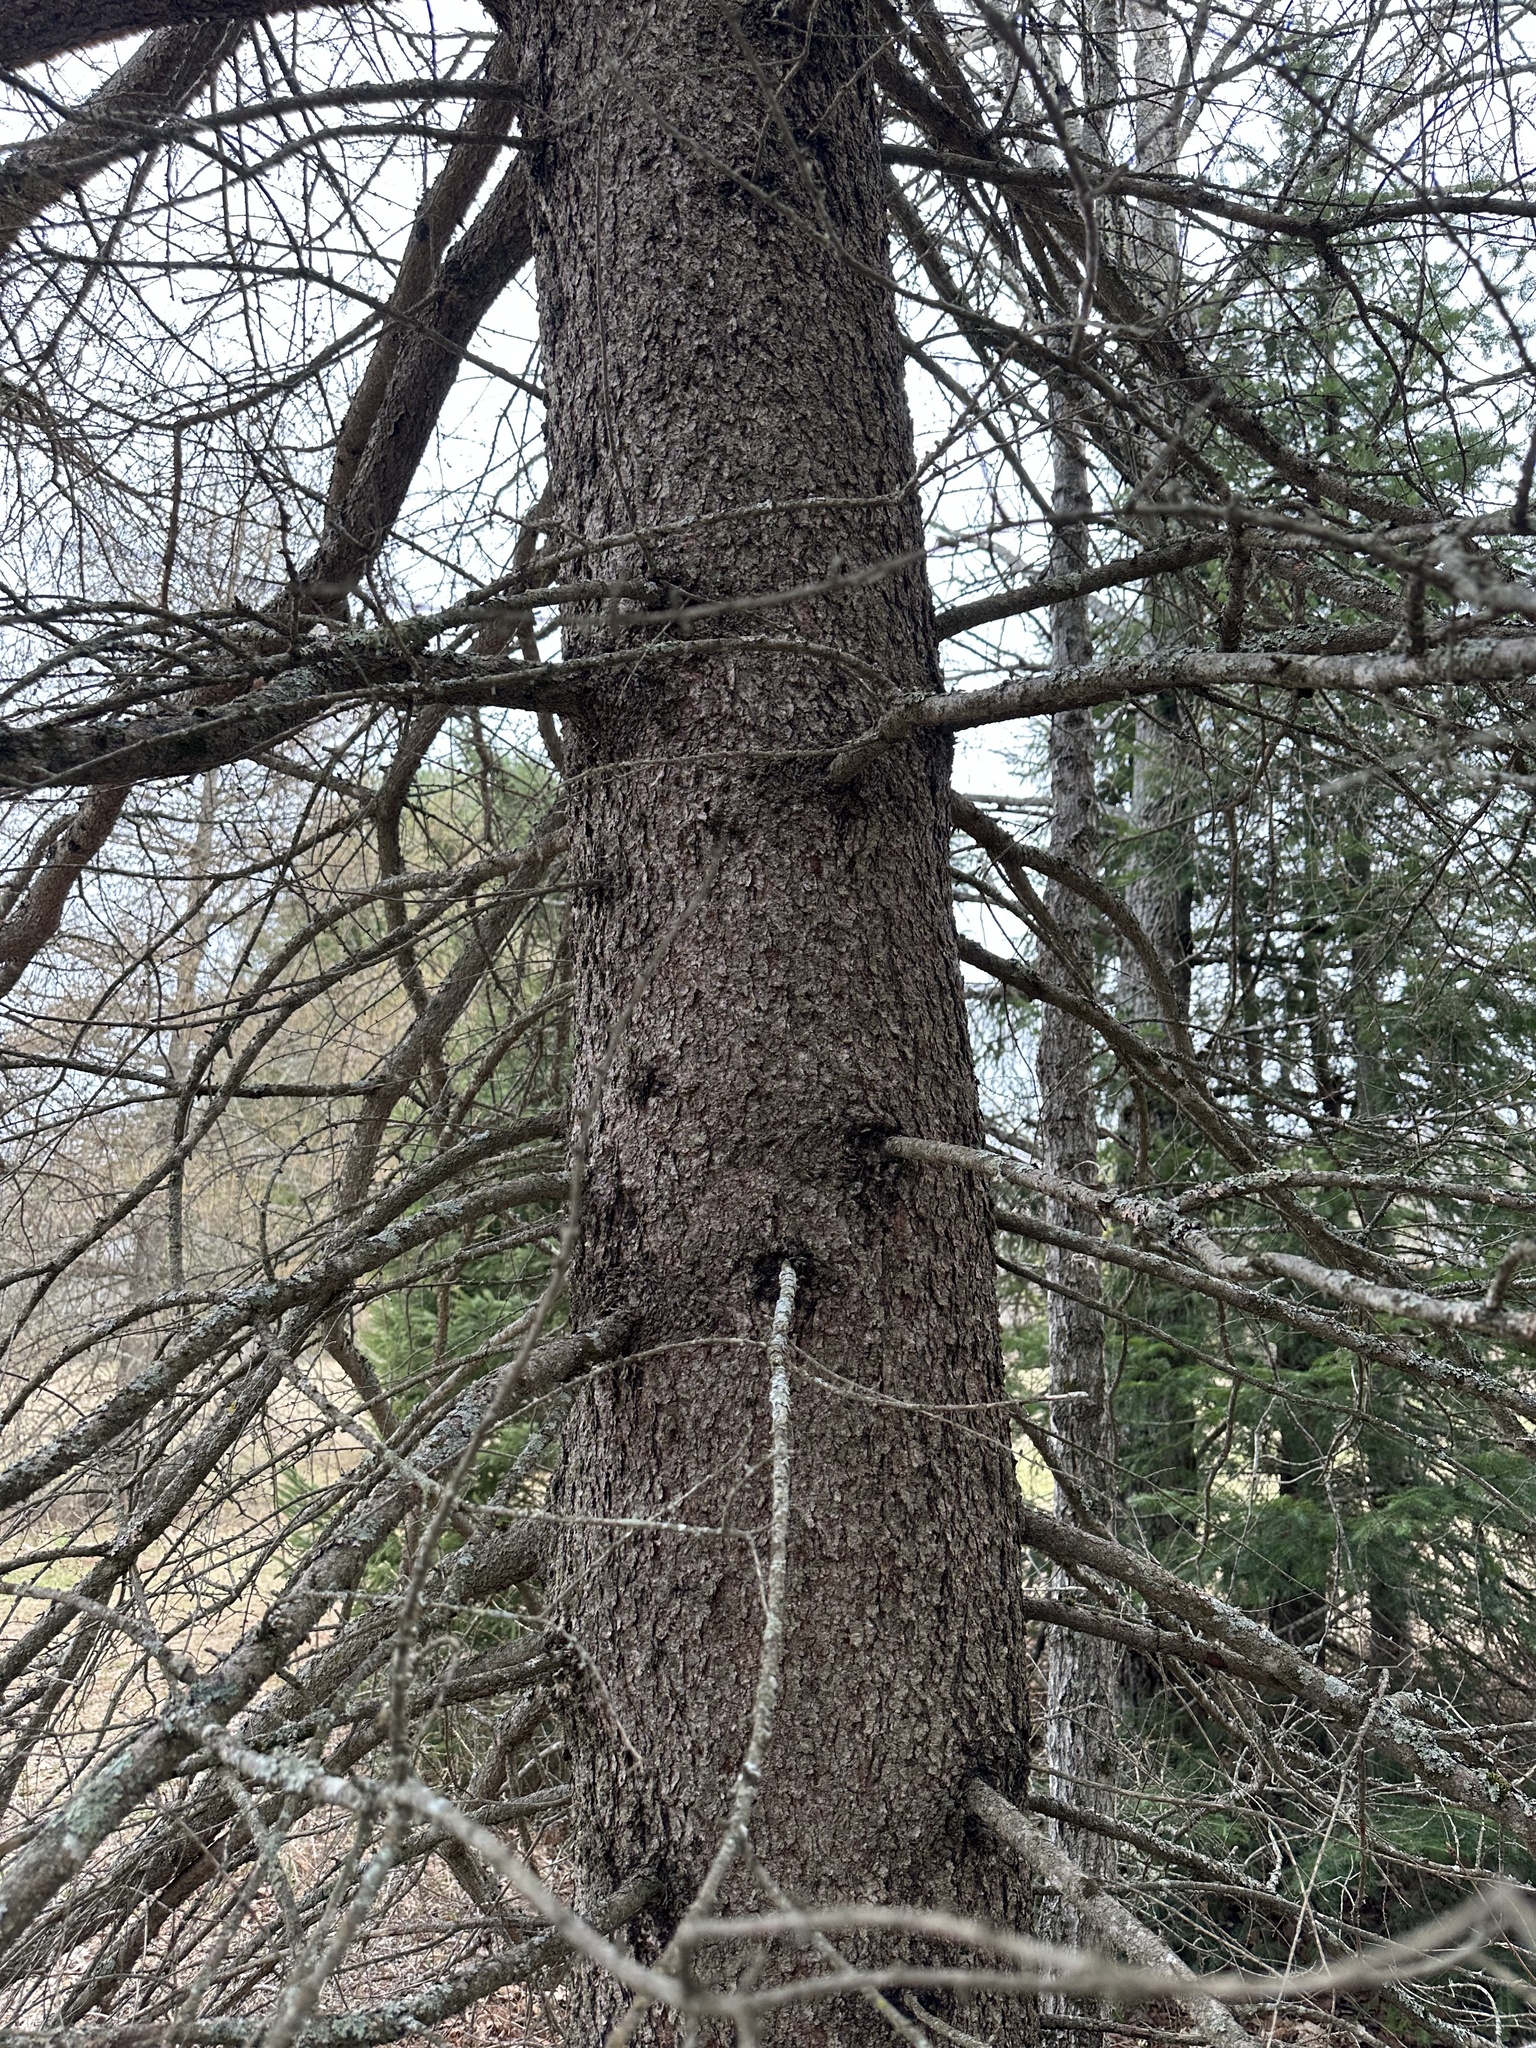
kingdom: Plantae
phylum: Tracheophyta
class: Pinopsida
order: Pinales
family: Pinaceae
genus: Larix
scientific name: Larix laricina
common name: American larch
